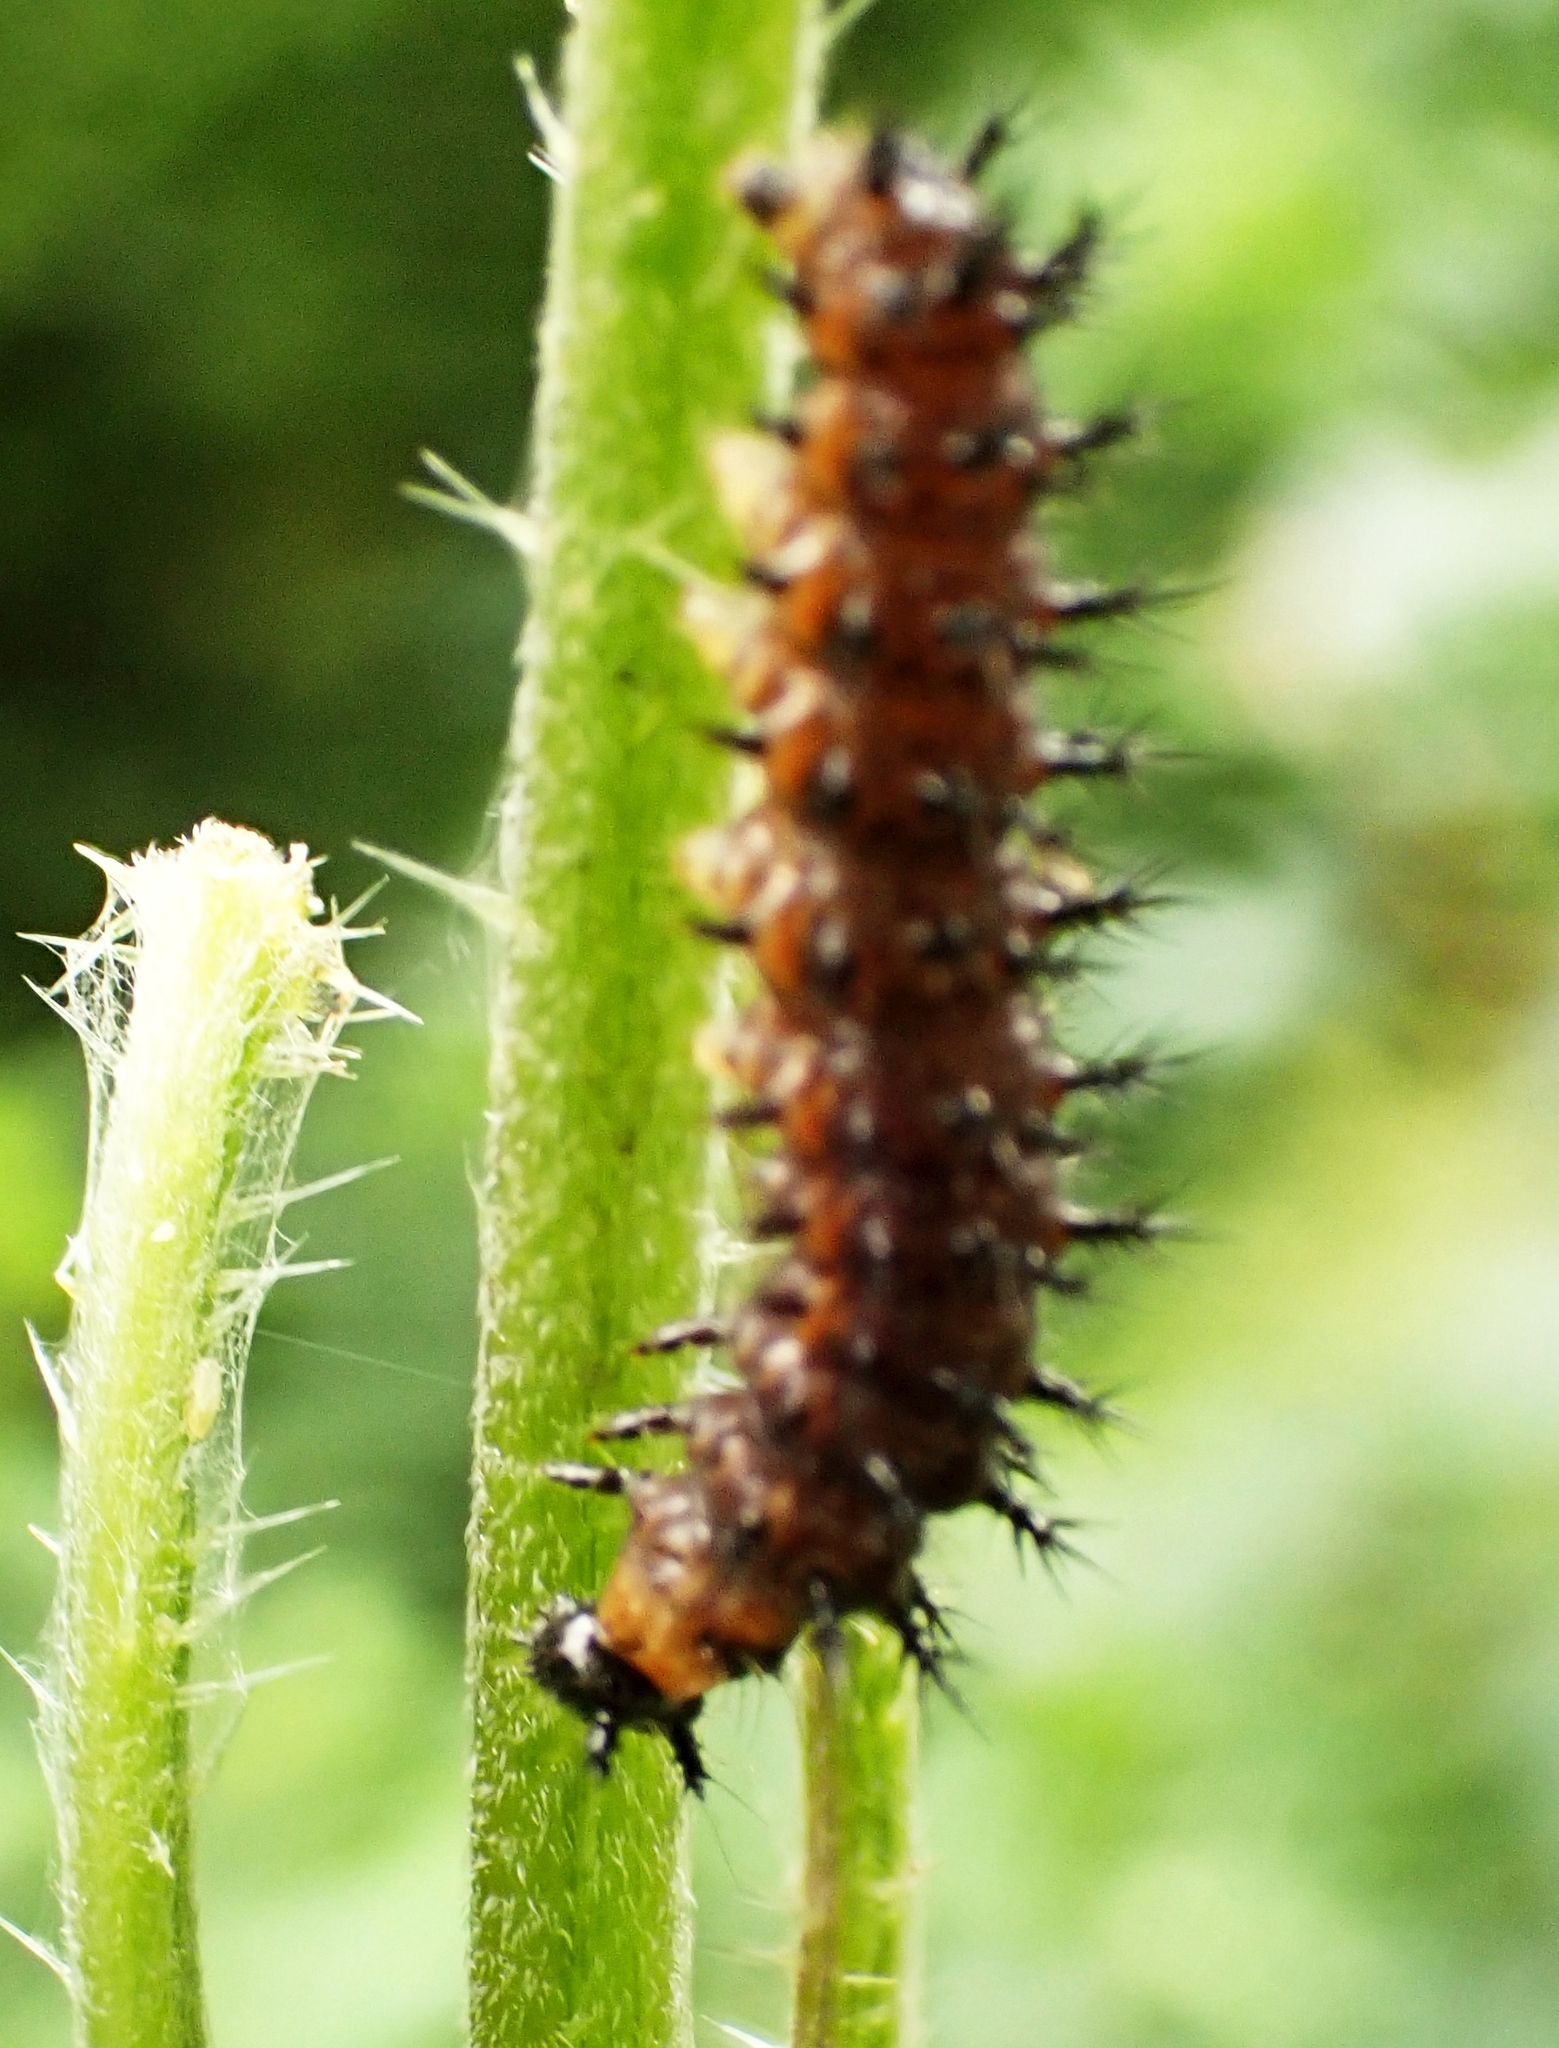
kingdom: Animalia
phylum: Arthropoda
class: Insecta
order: Lepidoptera
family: Nymphalidae
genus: Araschnia
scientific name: Araschnia levana
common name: Map butterfly
